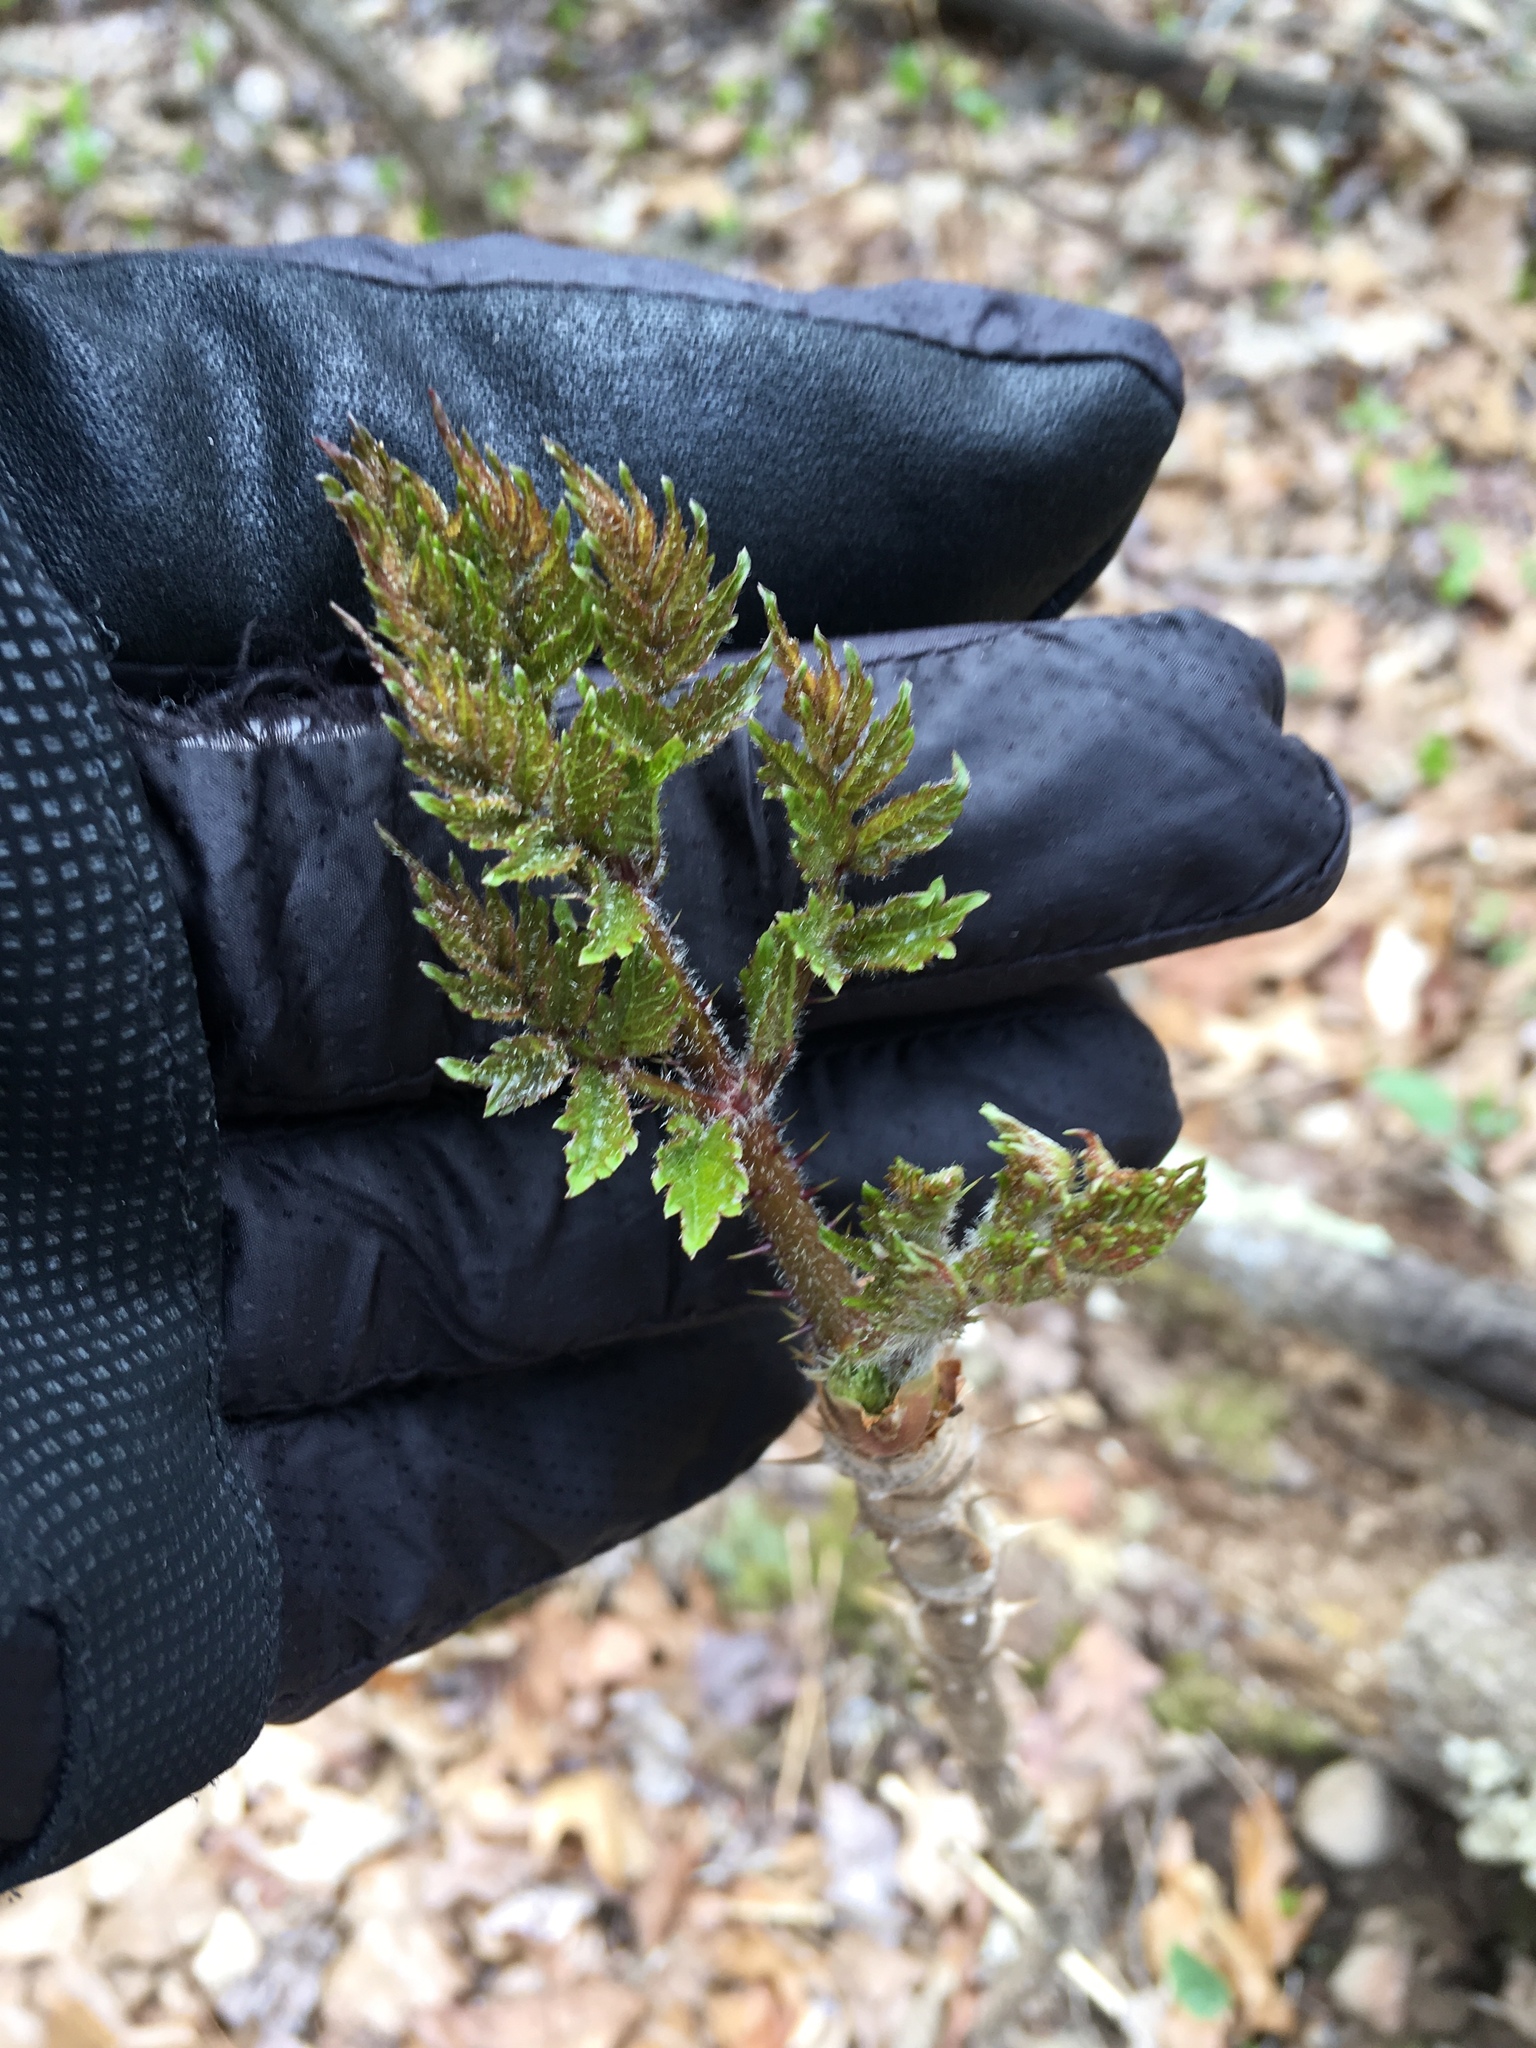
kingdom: Plantae
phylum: Tracheophyta
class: Magnoliopsida
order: Apiales
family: Araliaceae
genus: Aralia
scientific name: Aralia elata
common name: Japanese angelica-tree
